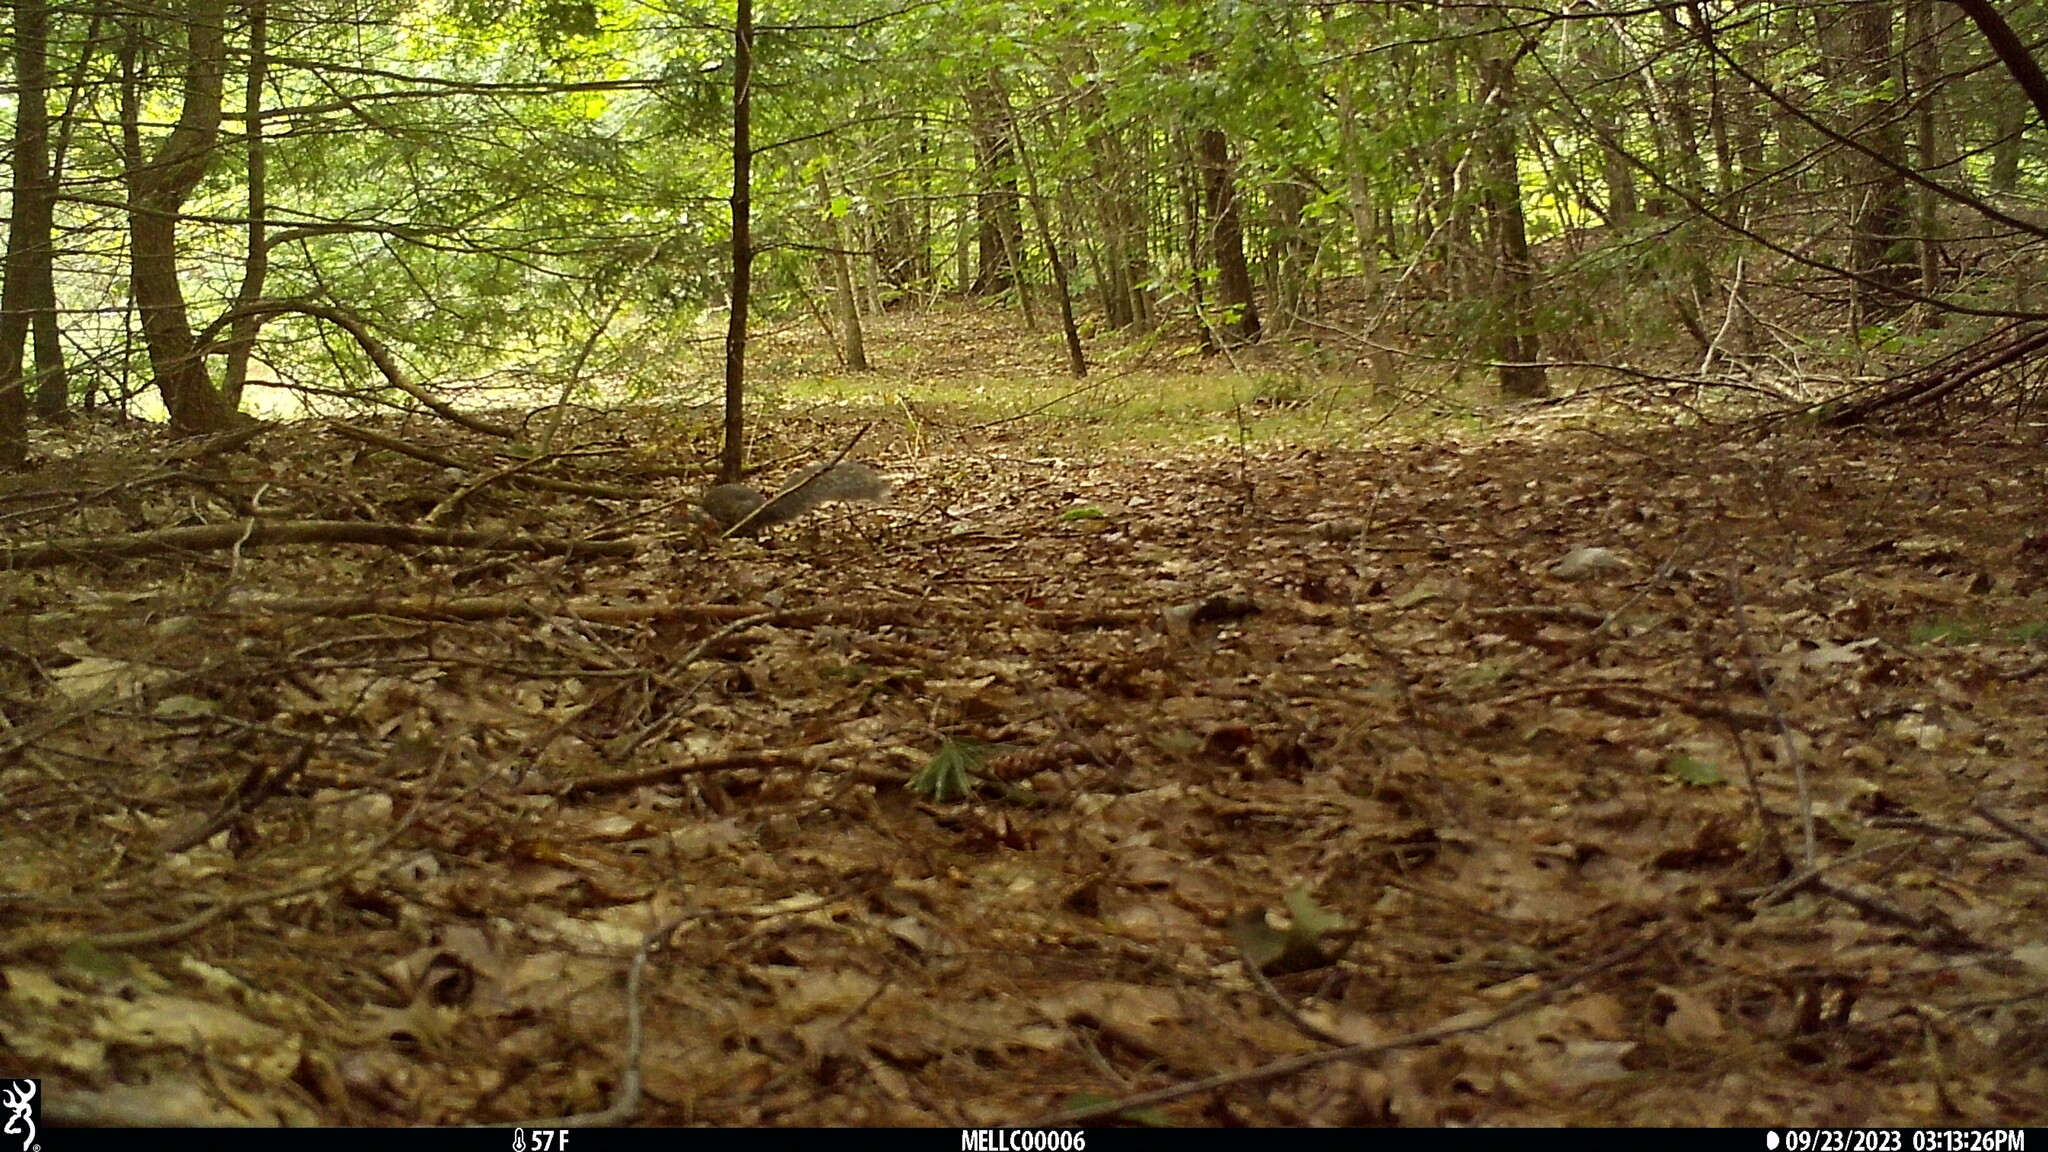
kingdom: Animalia
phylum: Chordata
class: Mammalia
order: Rodentia
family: Sciuridae
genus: Sciurus
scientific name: Sciurus carolinensis
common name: Eastern gray squirrel
